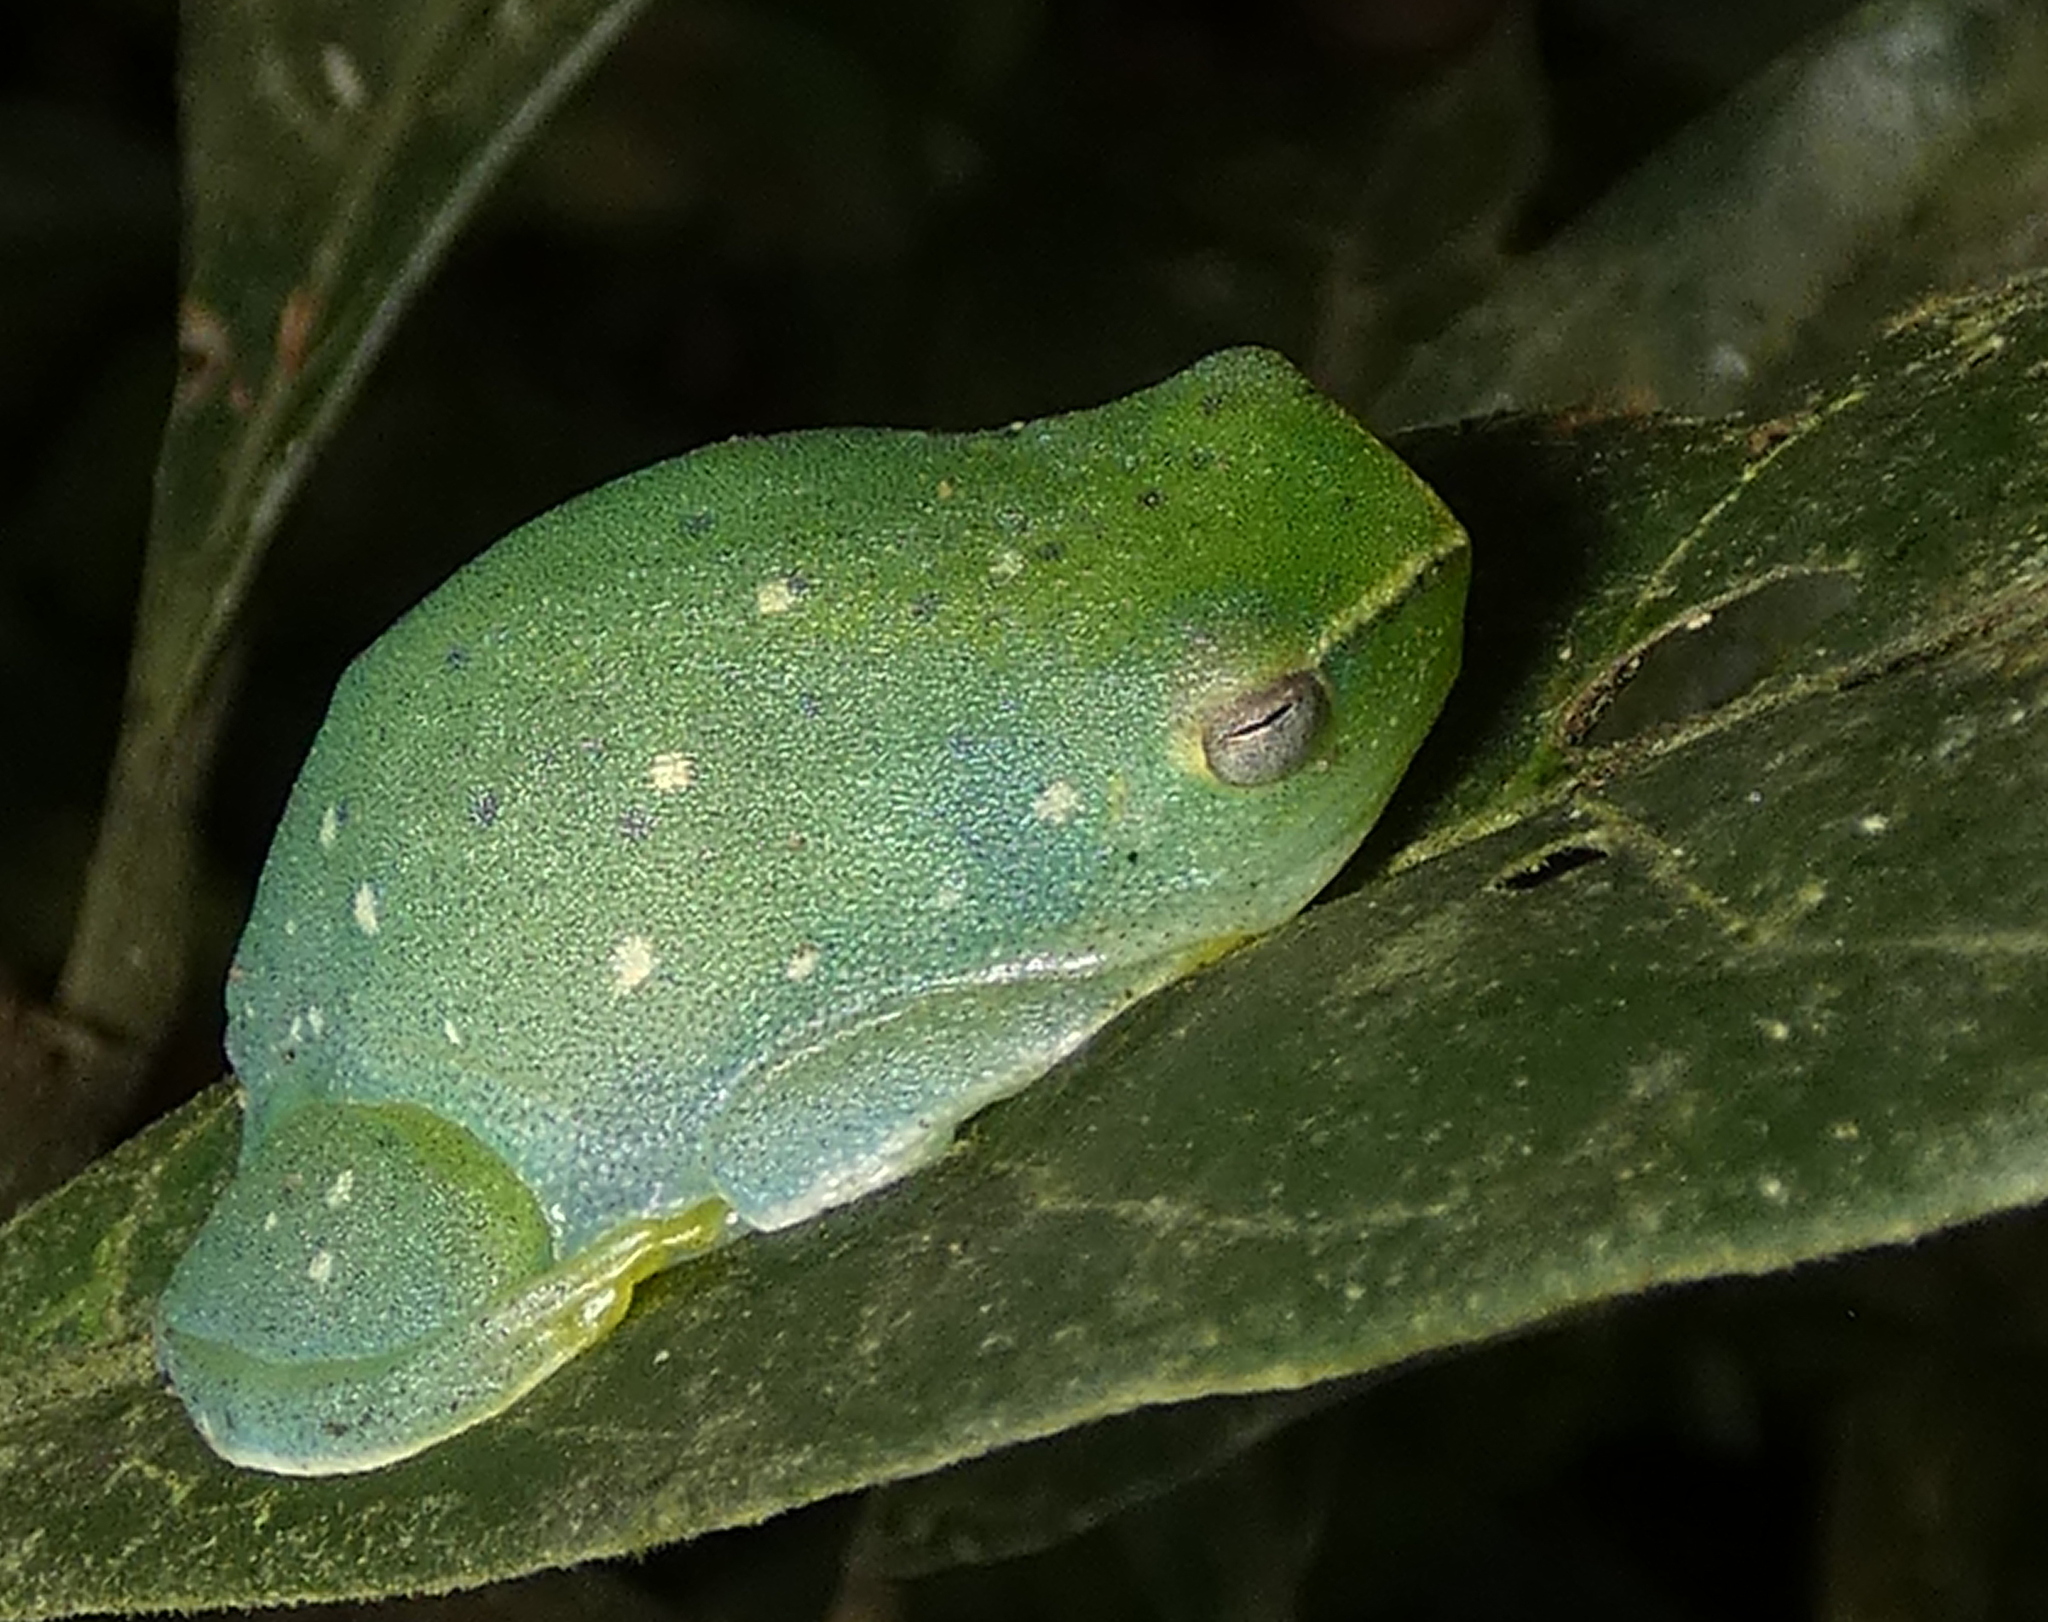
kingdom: Animalia
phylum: Chordata
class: Amphibia
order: Anura
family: Hylidae
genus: Sphaenorhynchus
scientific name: Sphaenorhynchus prasinus
